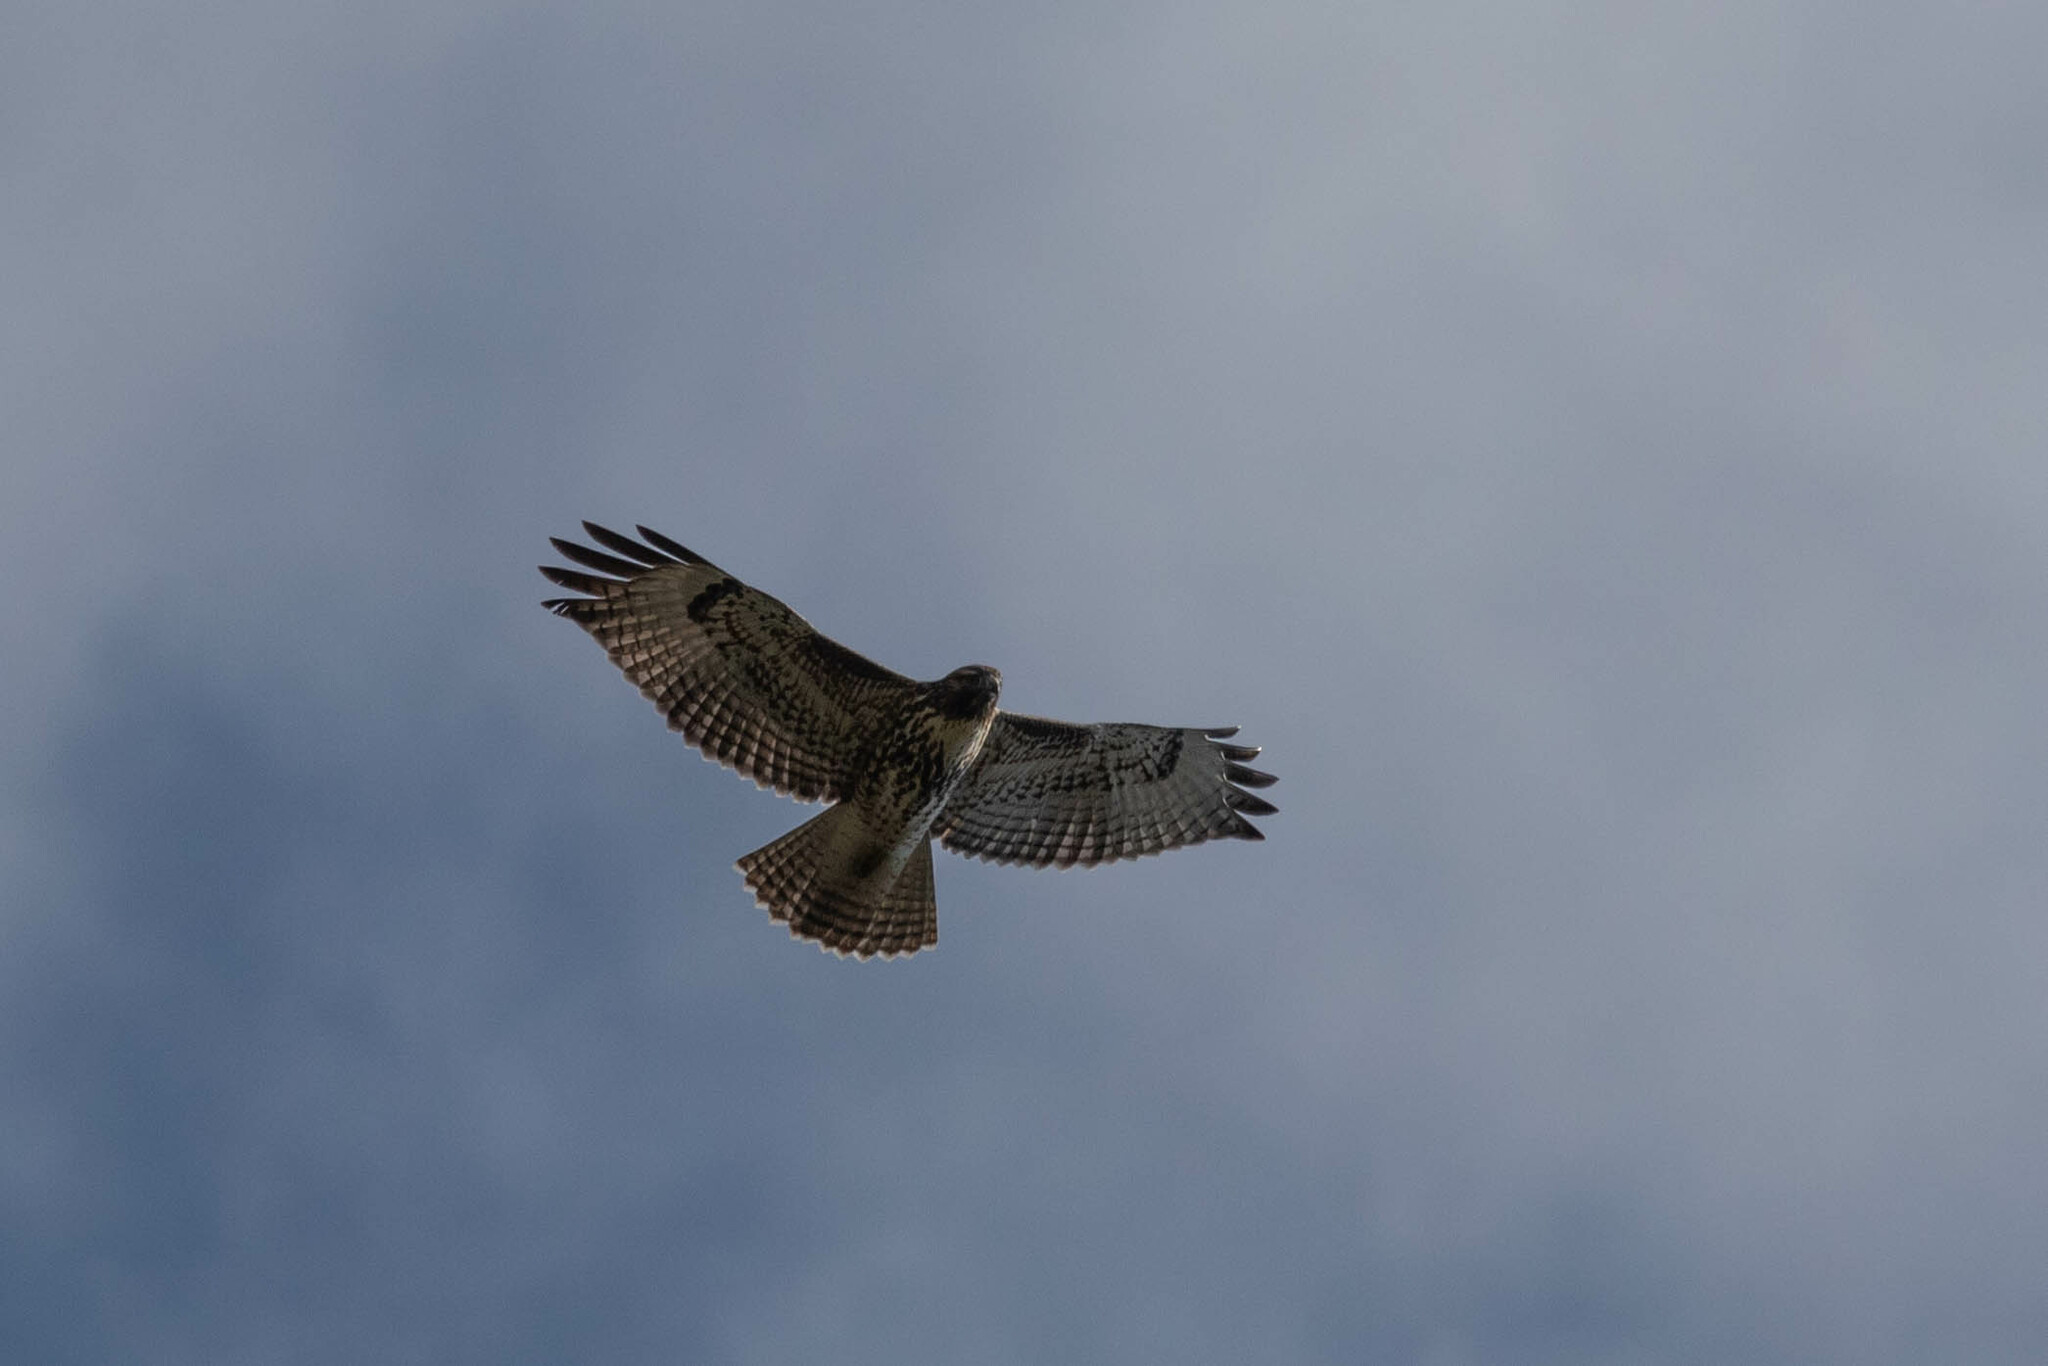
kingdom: Animalia
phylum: Chordata
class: Aves
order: Accipitriformes
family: Accipitridae
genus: Buteo
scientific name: Buteo jamaicensis
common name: Red-tailed hawk
